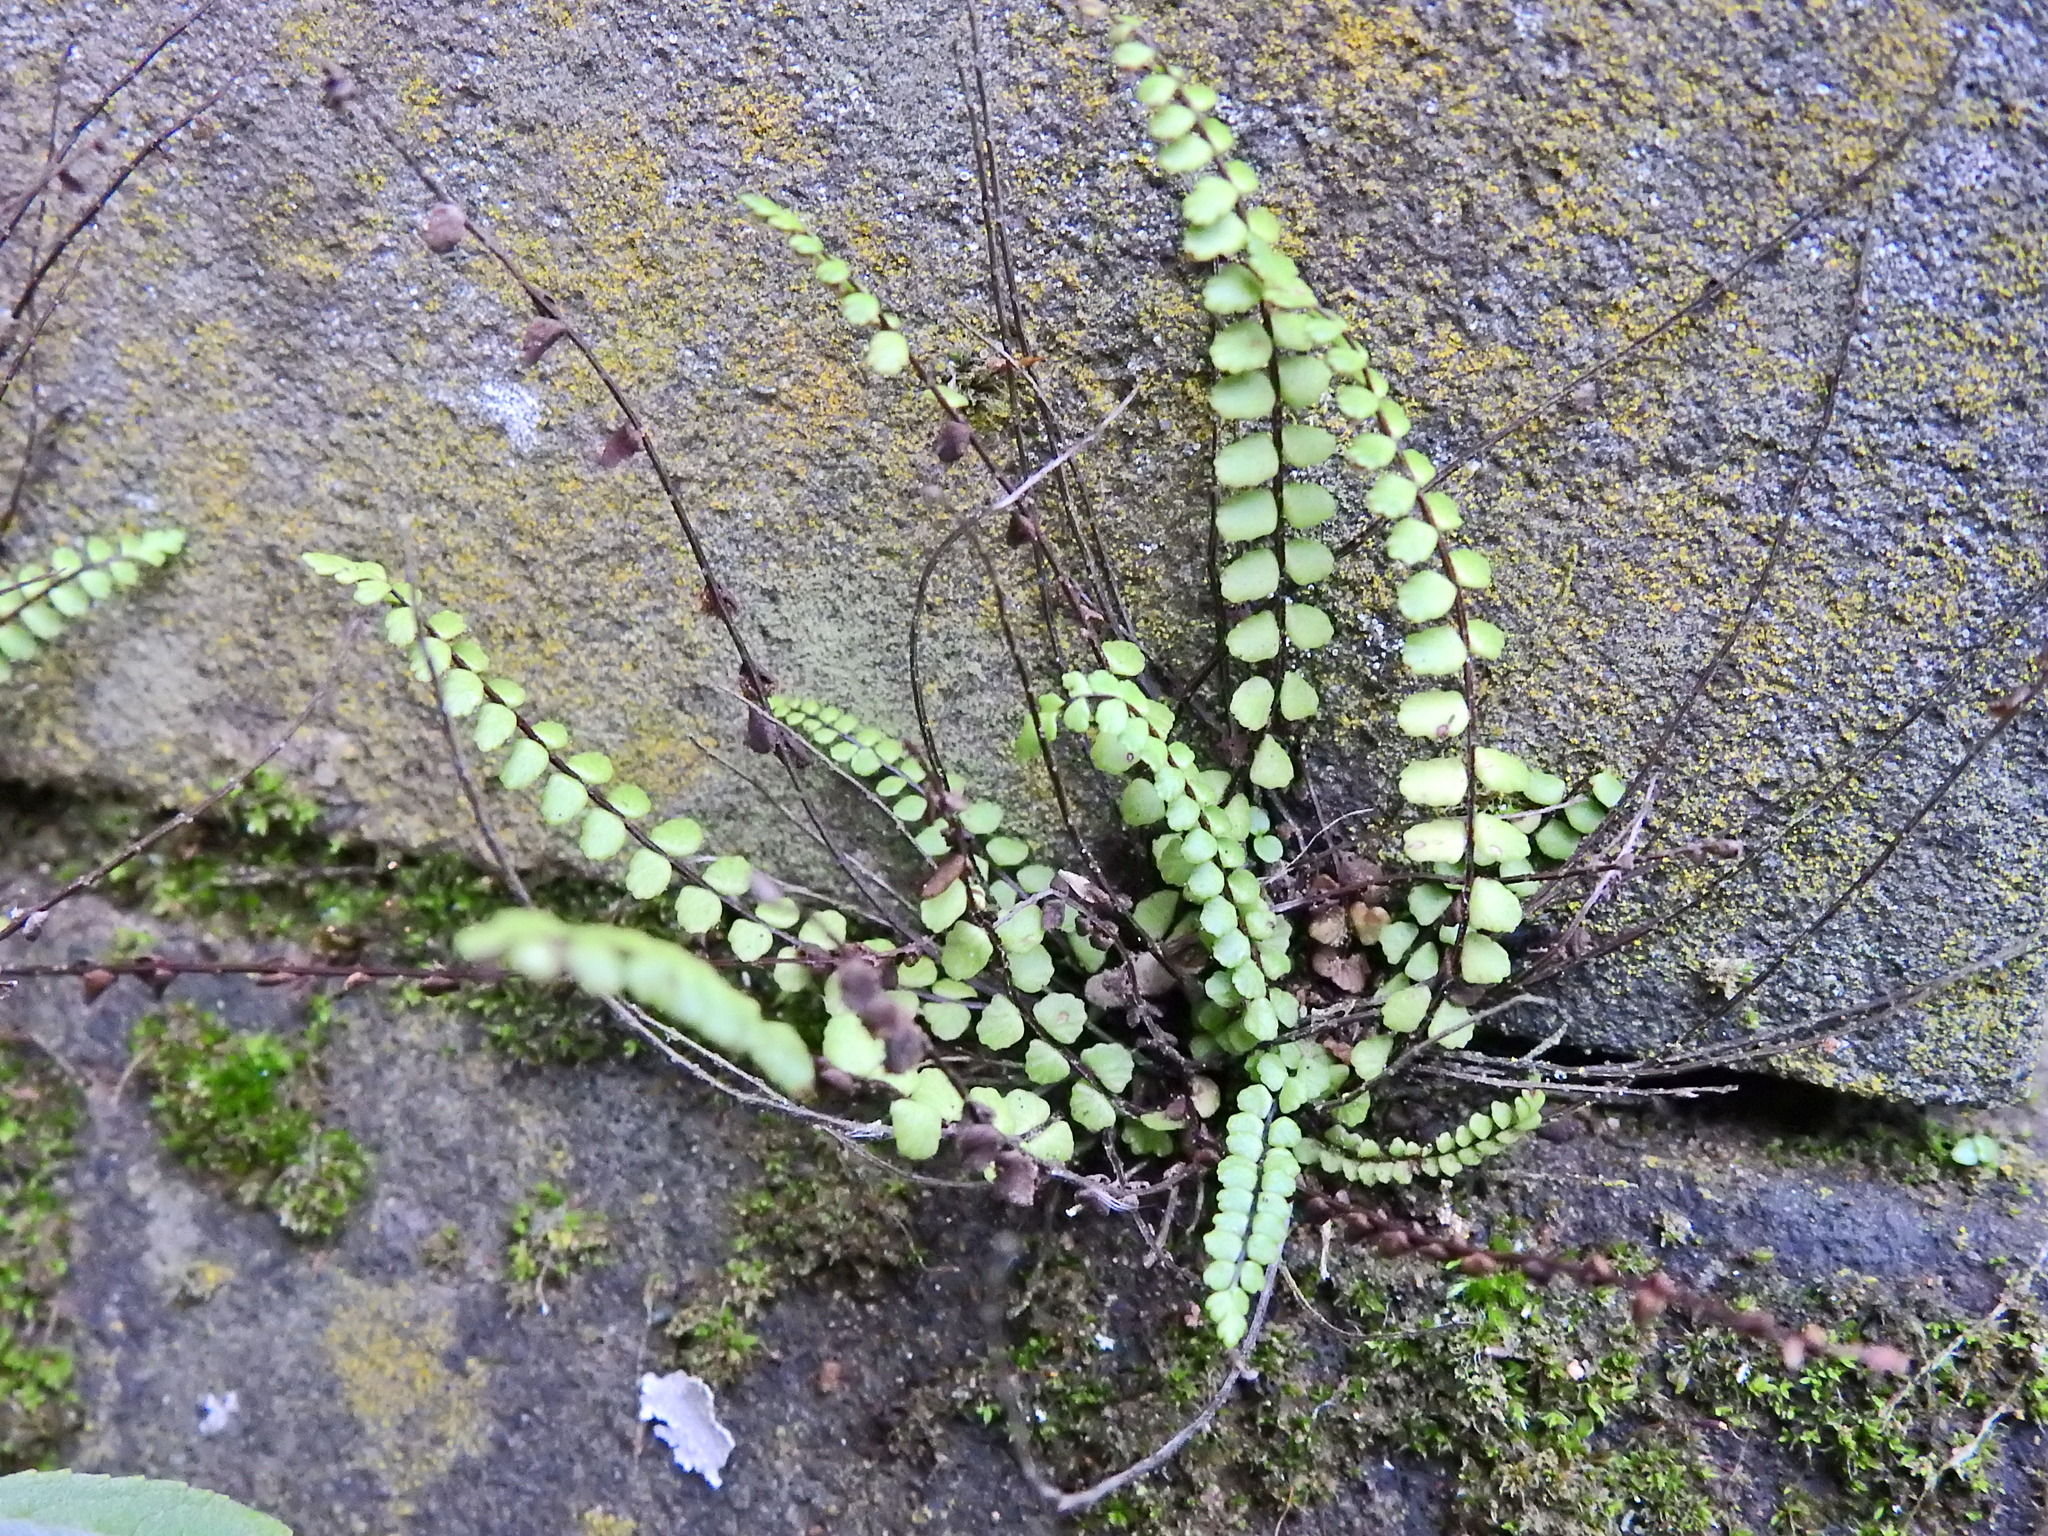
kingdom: Plantae
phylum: Tracheophyta
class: Polypodiopsida
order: Polypodiales
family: Aspleniaceae
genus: Asplenium
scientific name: Asplenium trichomanes
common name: Maidenhair spleenwort
